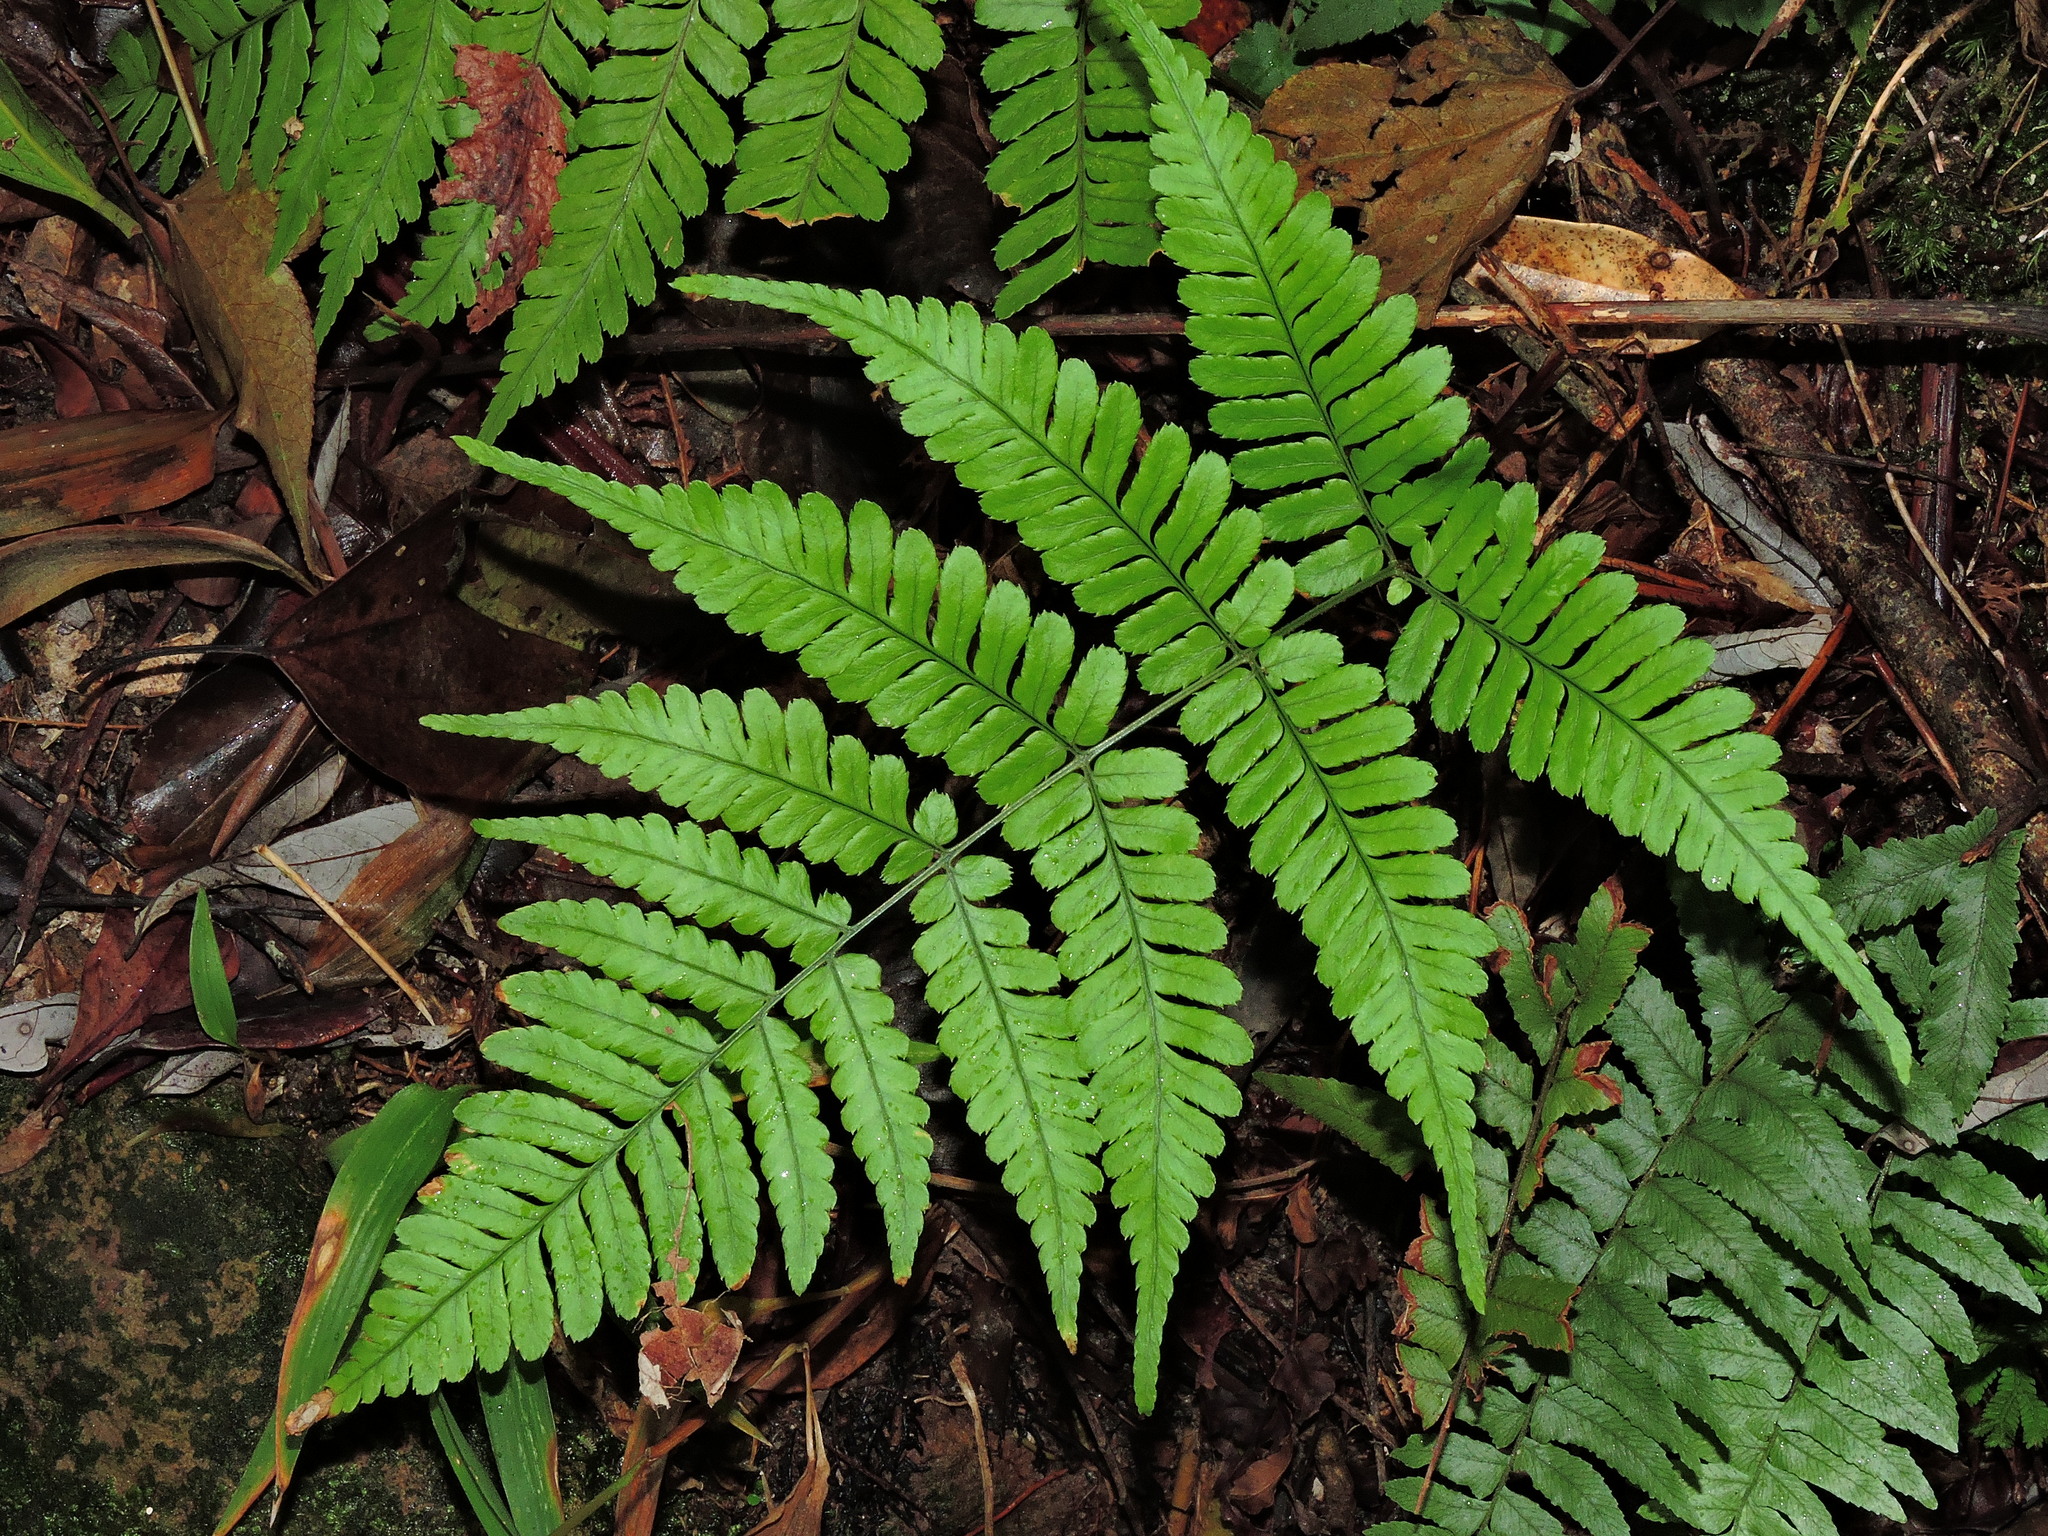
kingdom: Plantae
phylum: Tracheophyta
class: Polypodiopsida
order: Polypodiales
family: Dryopteridaceae
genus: Dryopteris
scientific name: Dryopteris subtriangularis
